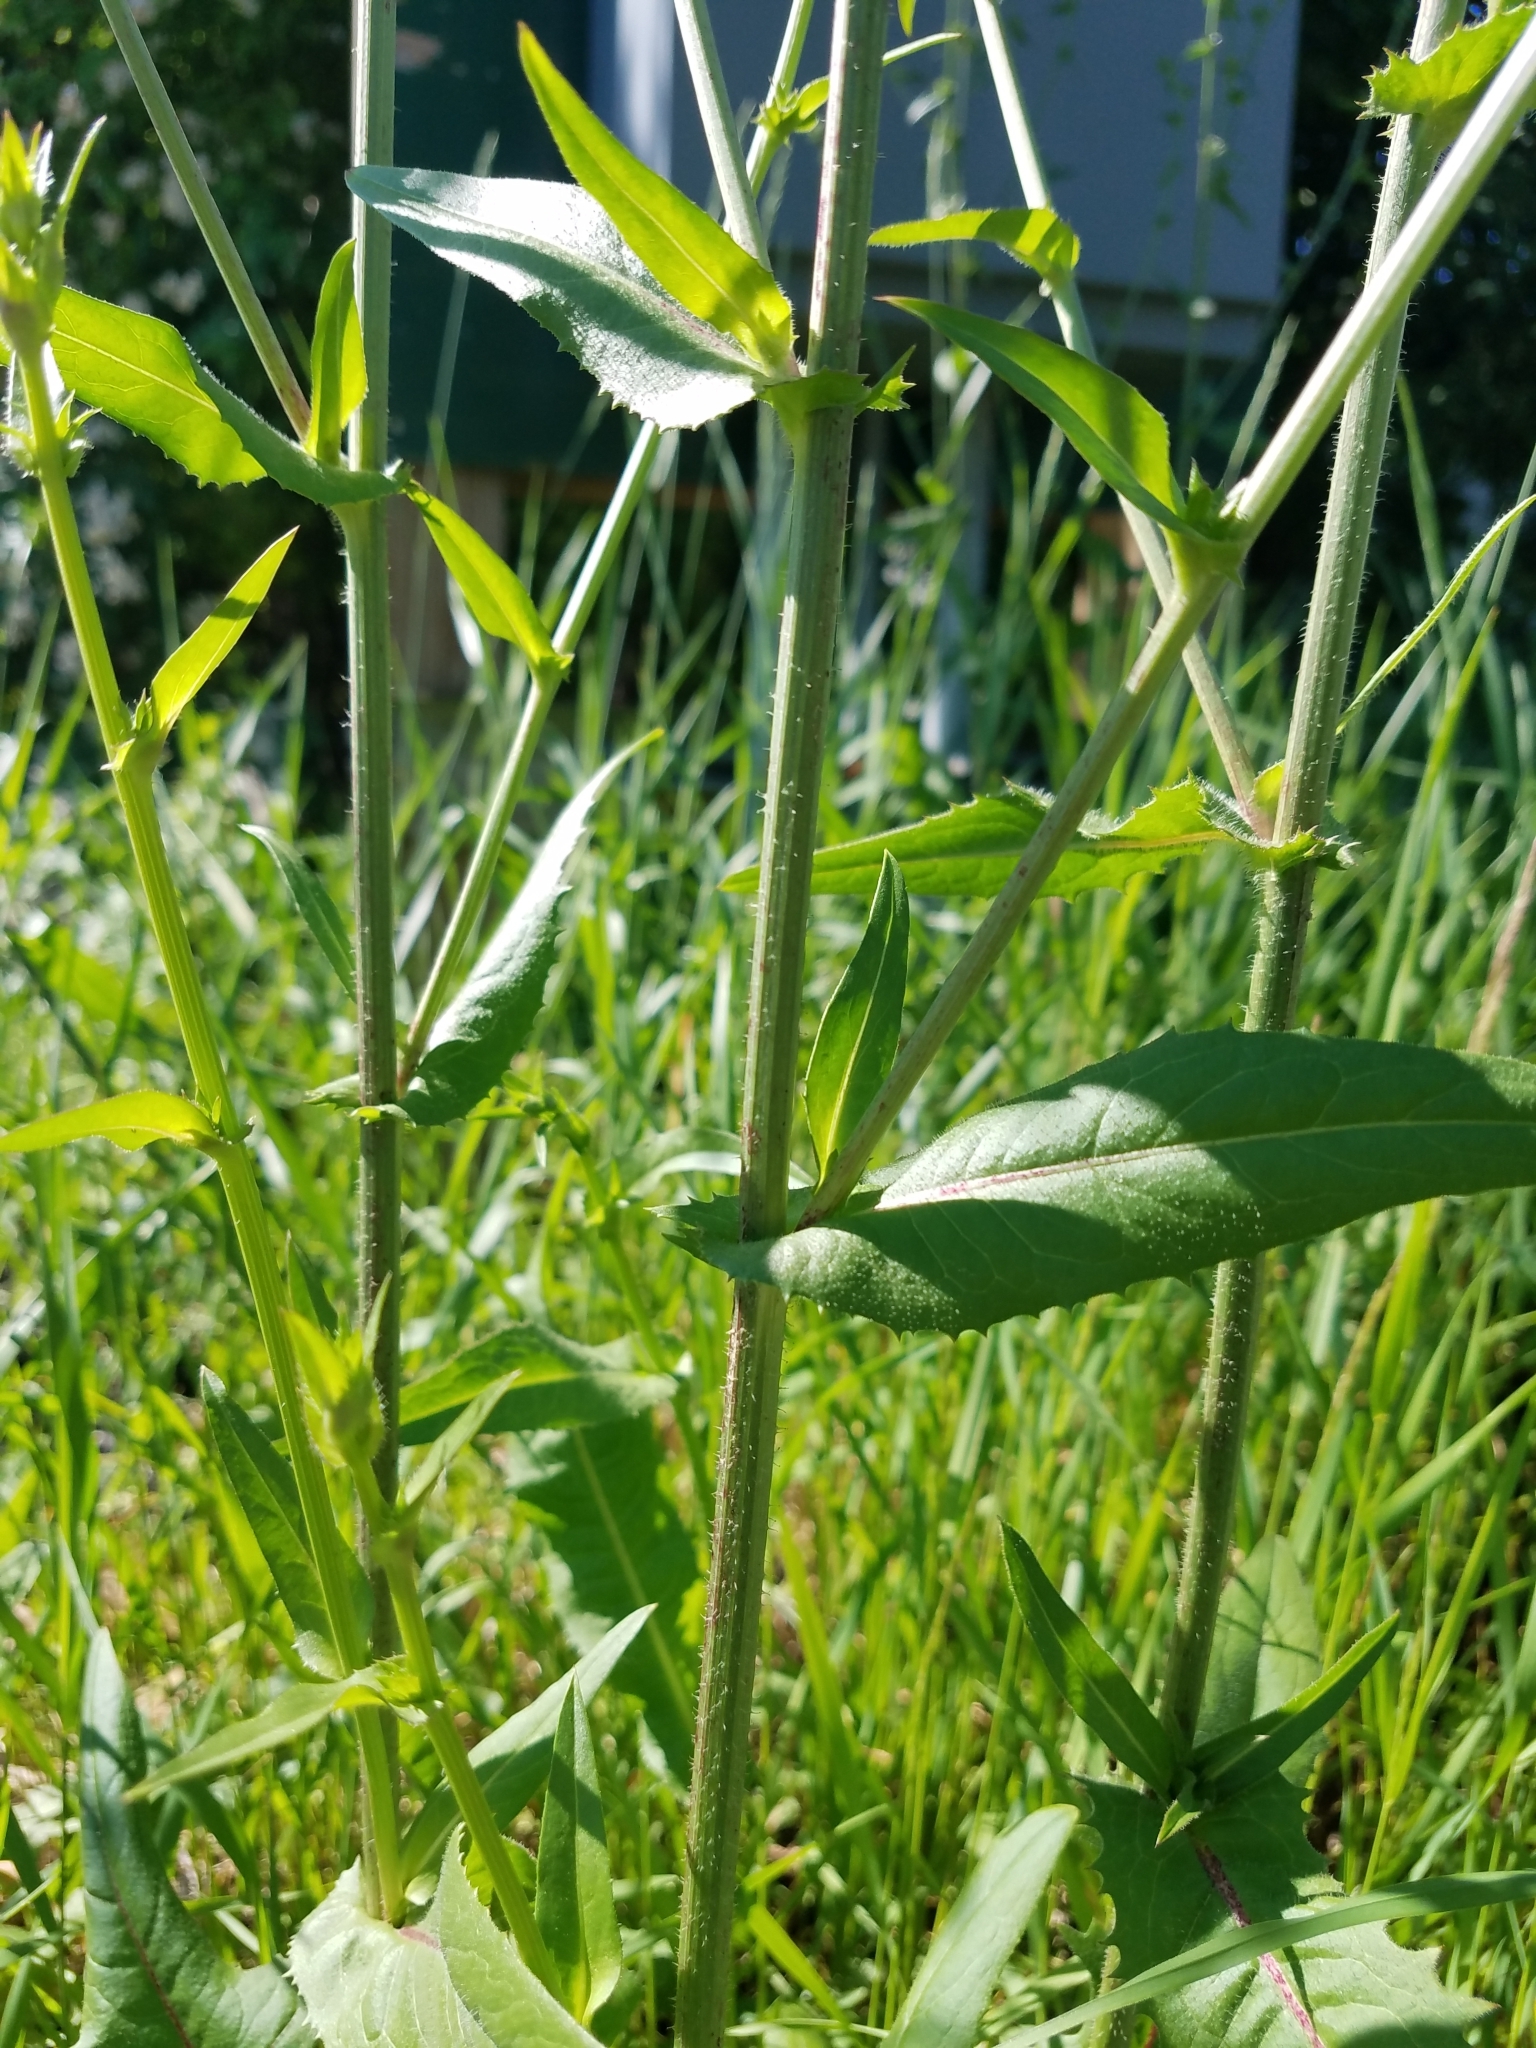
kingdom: Plantae
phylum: Tracheophyta
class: Magnoliopsida
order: Asterales
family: Asteraceae
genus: Cichorium
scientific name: Cichorium intybus
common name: Chicory
